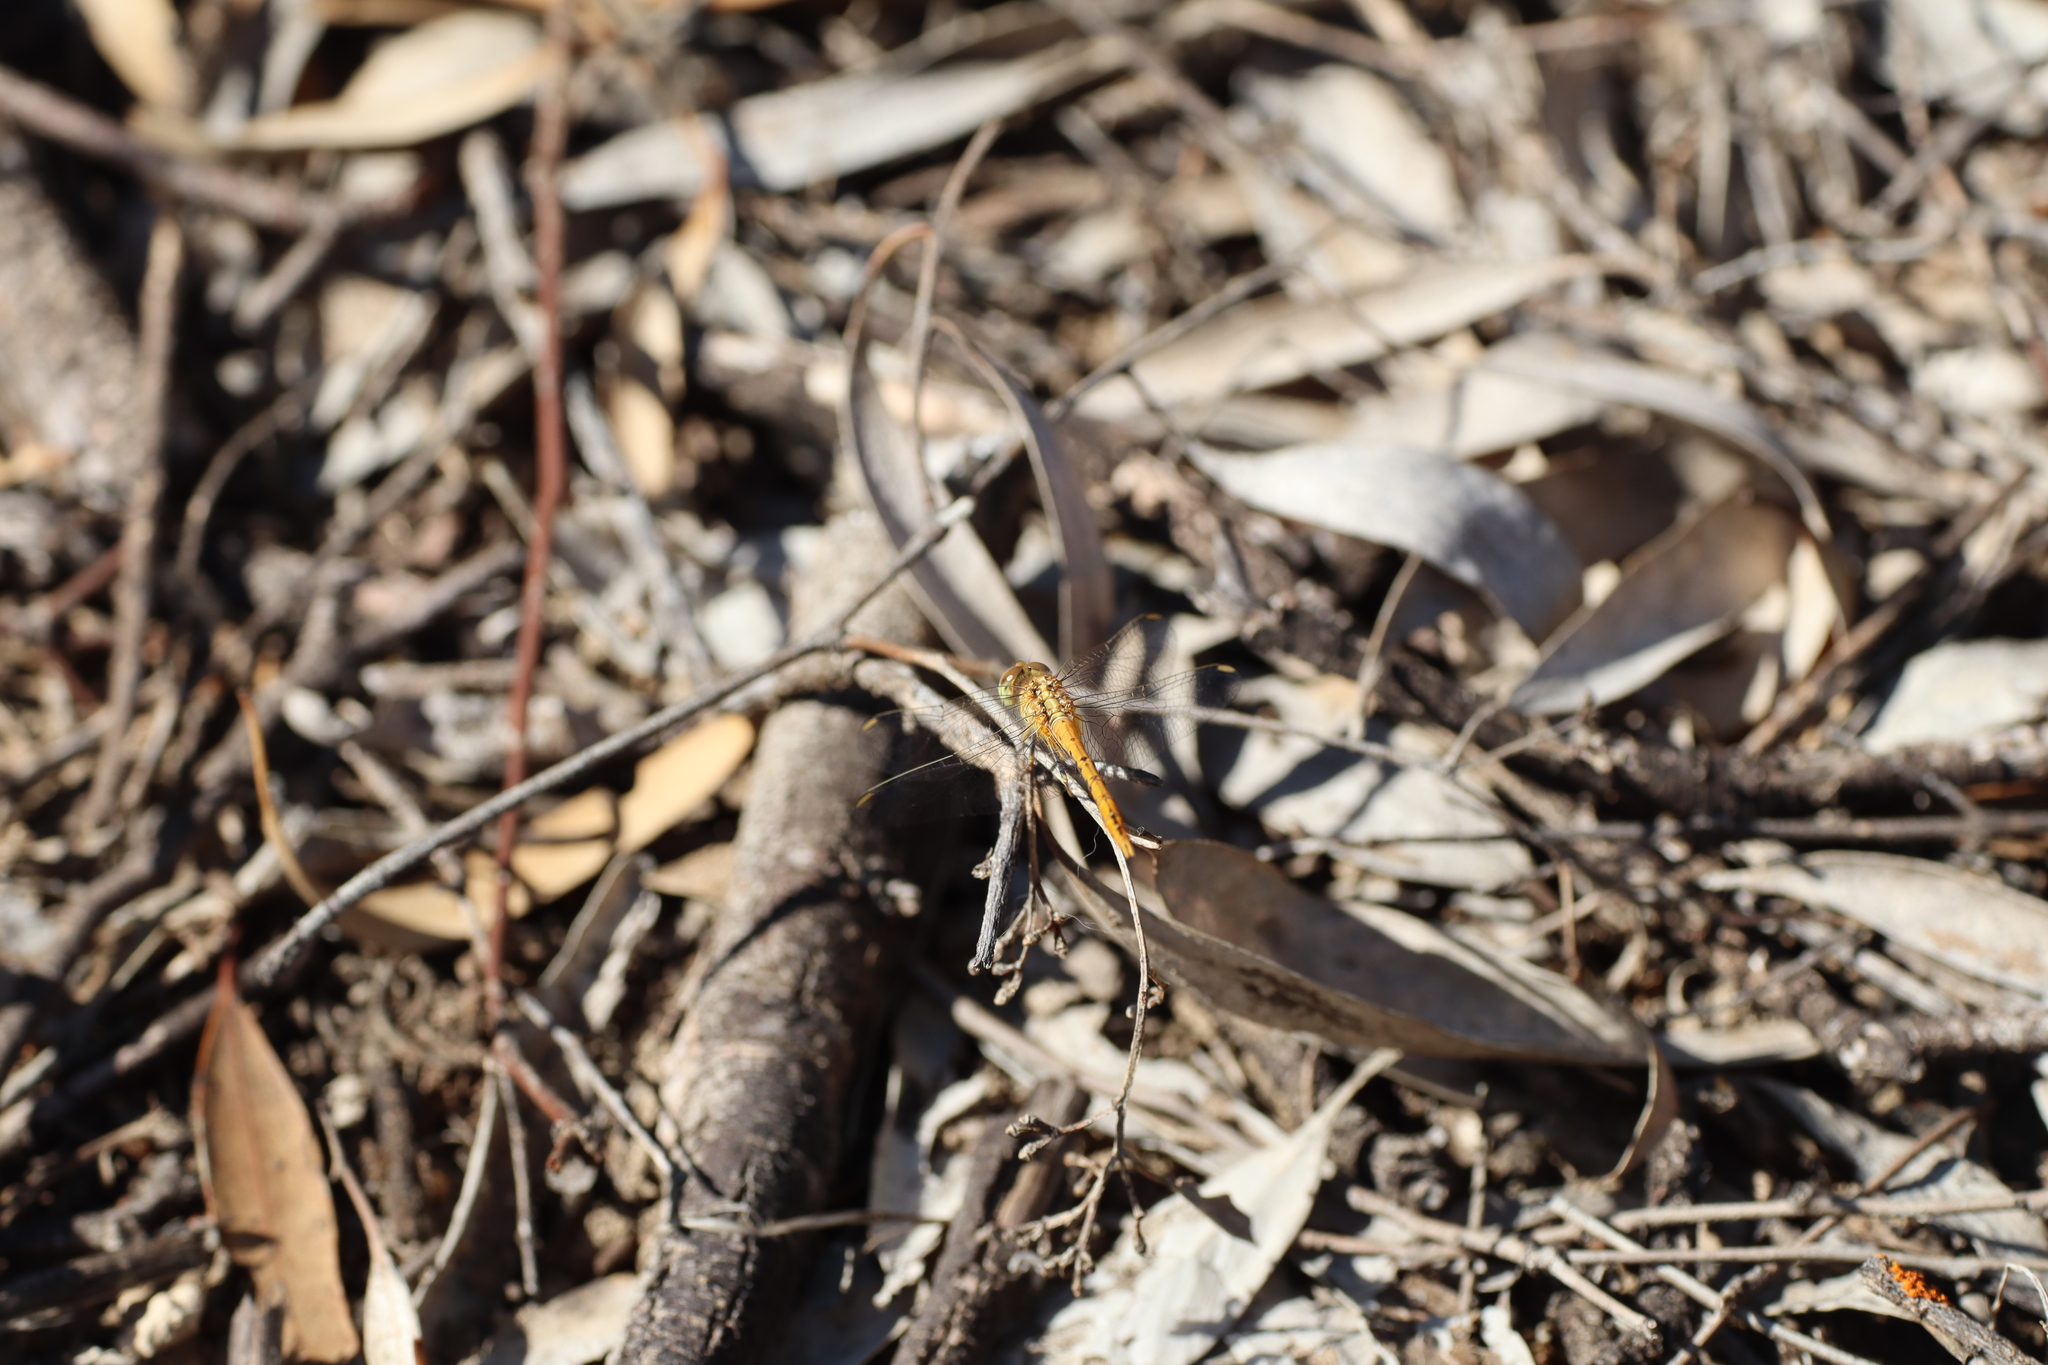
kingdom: Animalia
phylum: Arthropoda
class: Insecta
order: Odonata
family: Libellulidae
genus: Diplacodes
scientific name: Diplacodes bipunctata
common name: Red percher dragonfly
